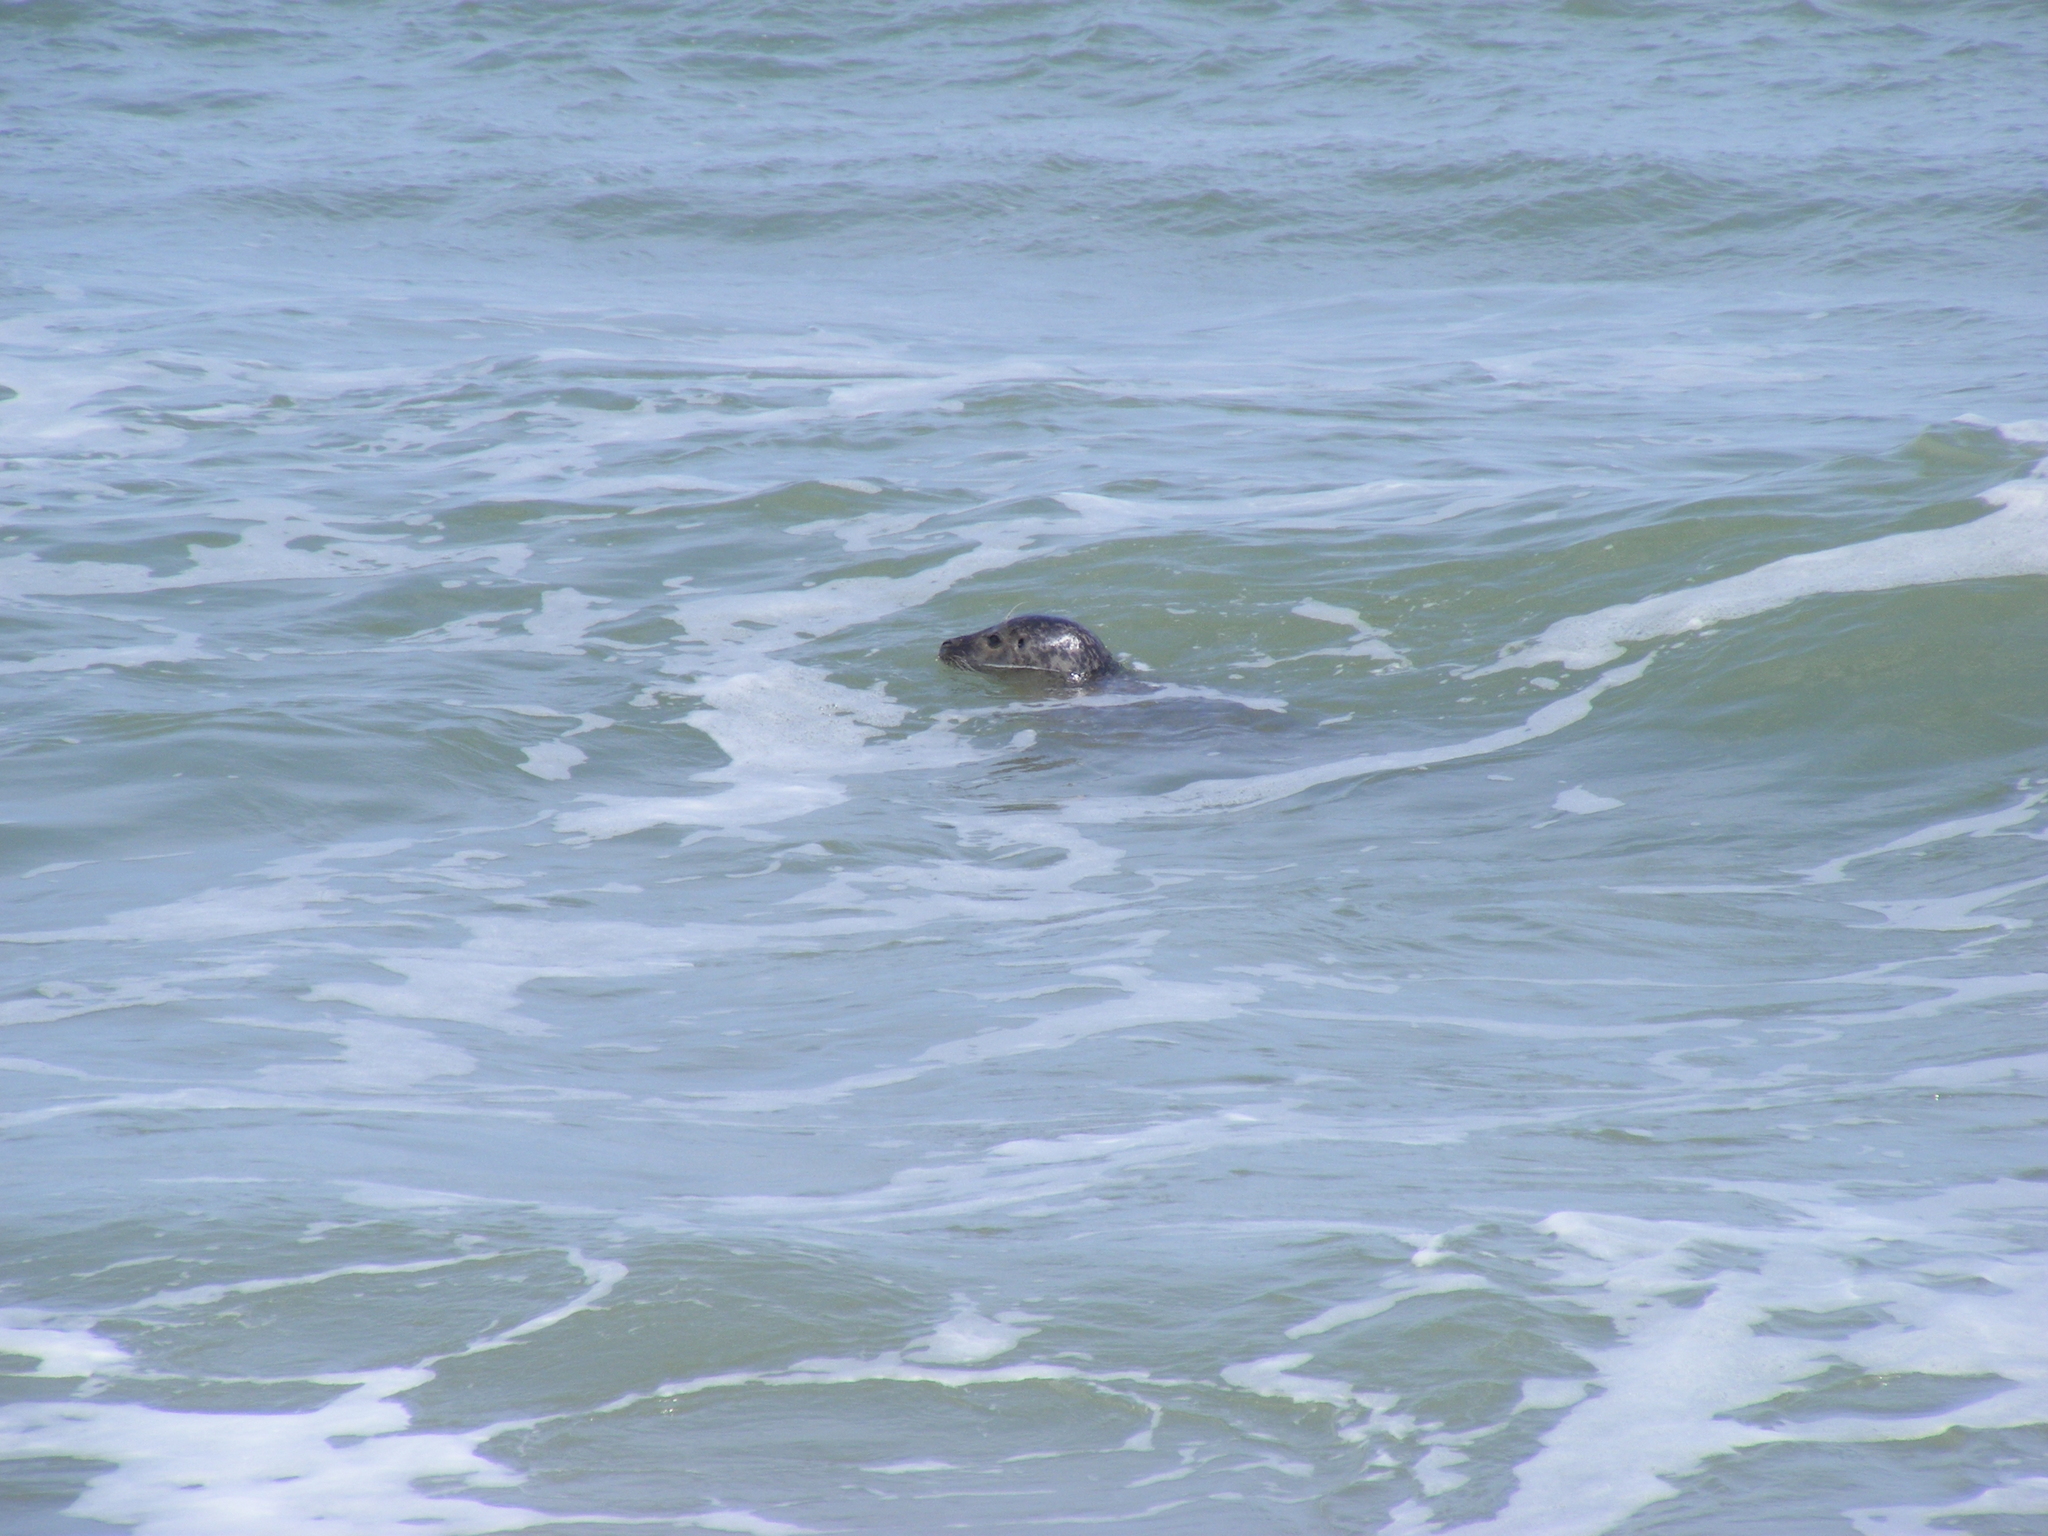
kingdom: Animalia
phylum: Chordata
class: Mammalia
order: Carnivora
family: Phocidae
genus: Phoca
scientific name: Phoca vitulina
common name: Harbor seal
